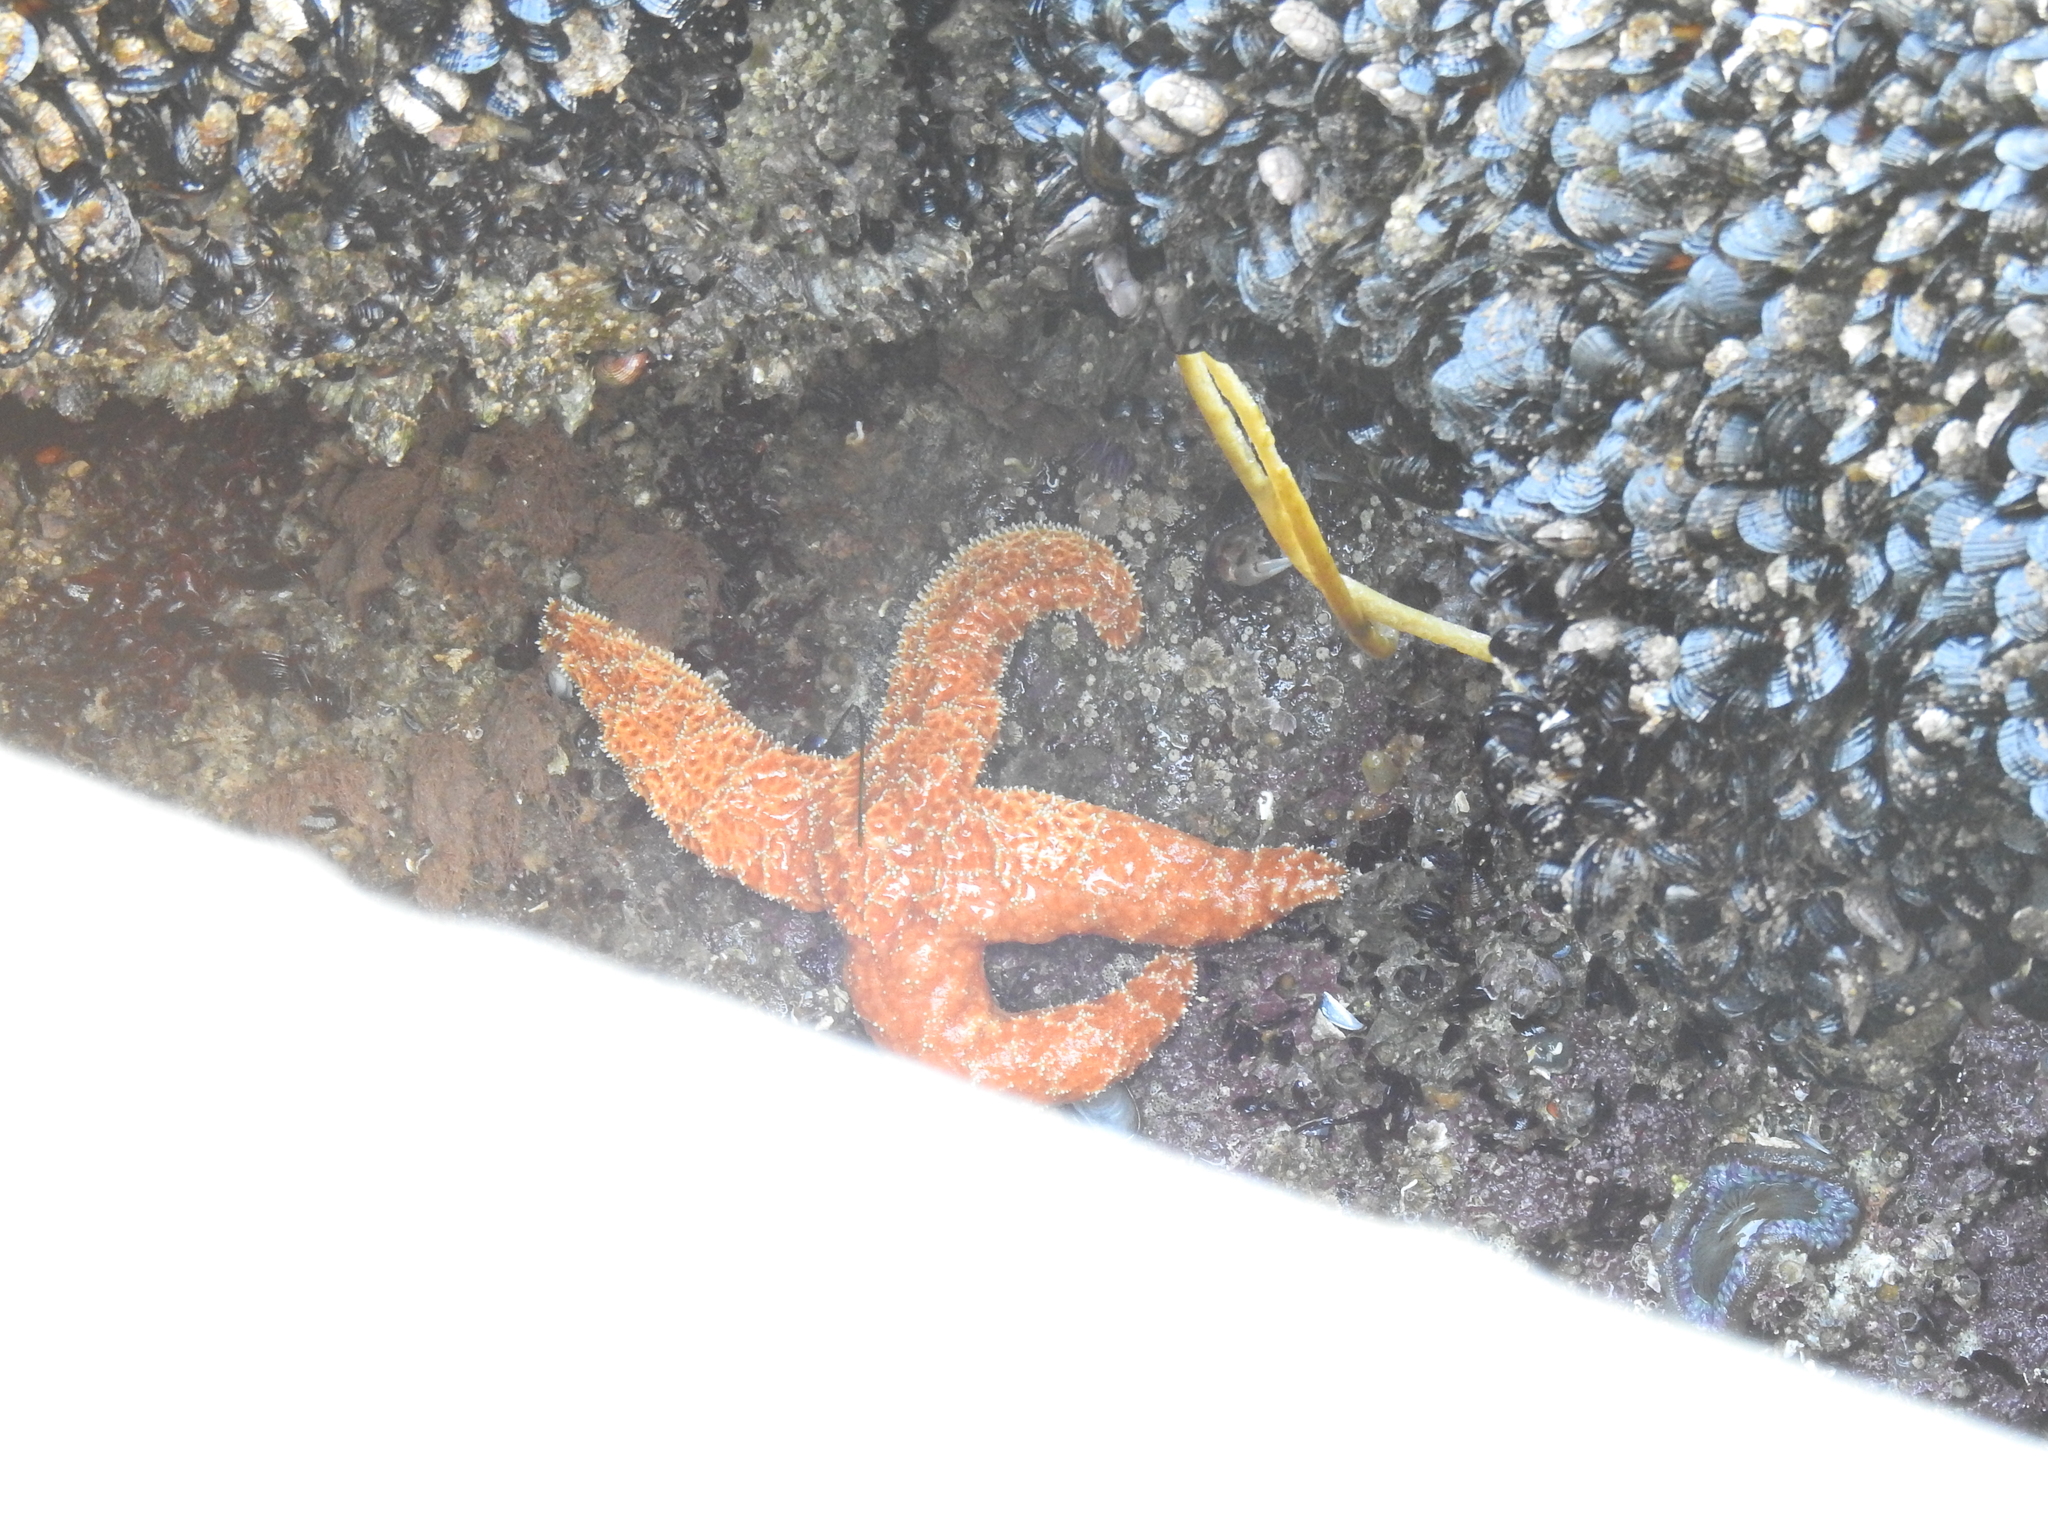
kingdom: Animalia
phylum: Echinodermata
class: Asteroidea
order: Forcipulatida
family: Asteriidae
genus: Pisaster
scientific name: Pisaster ochraceus
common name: Ochre stars
